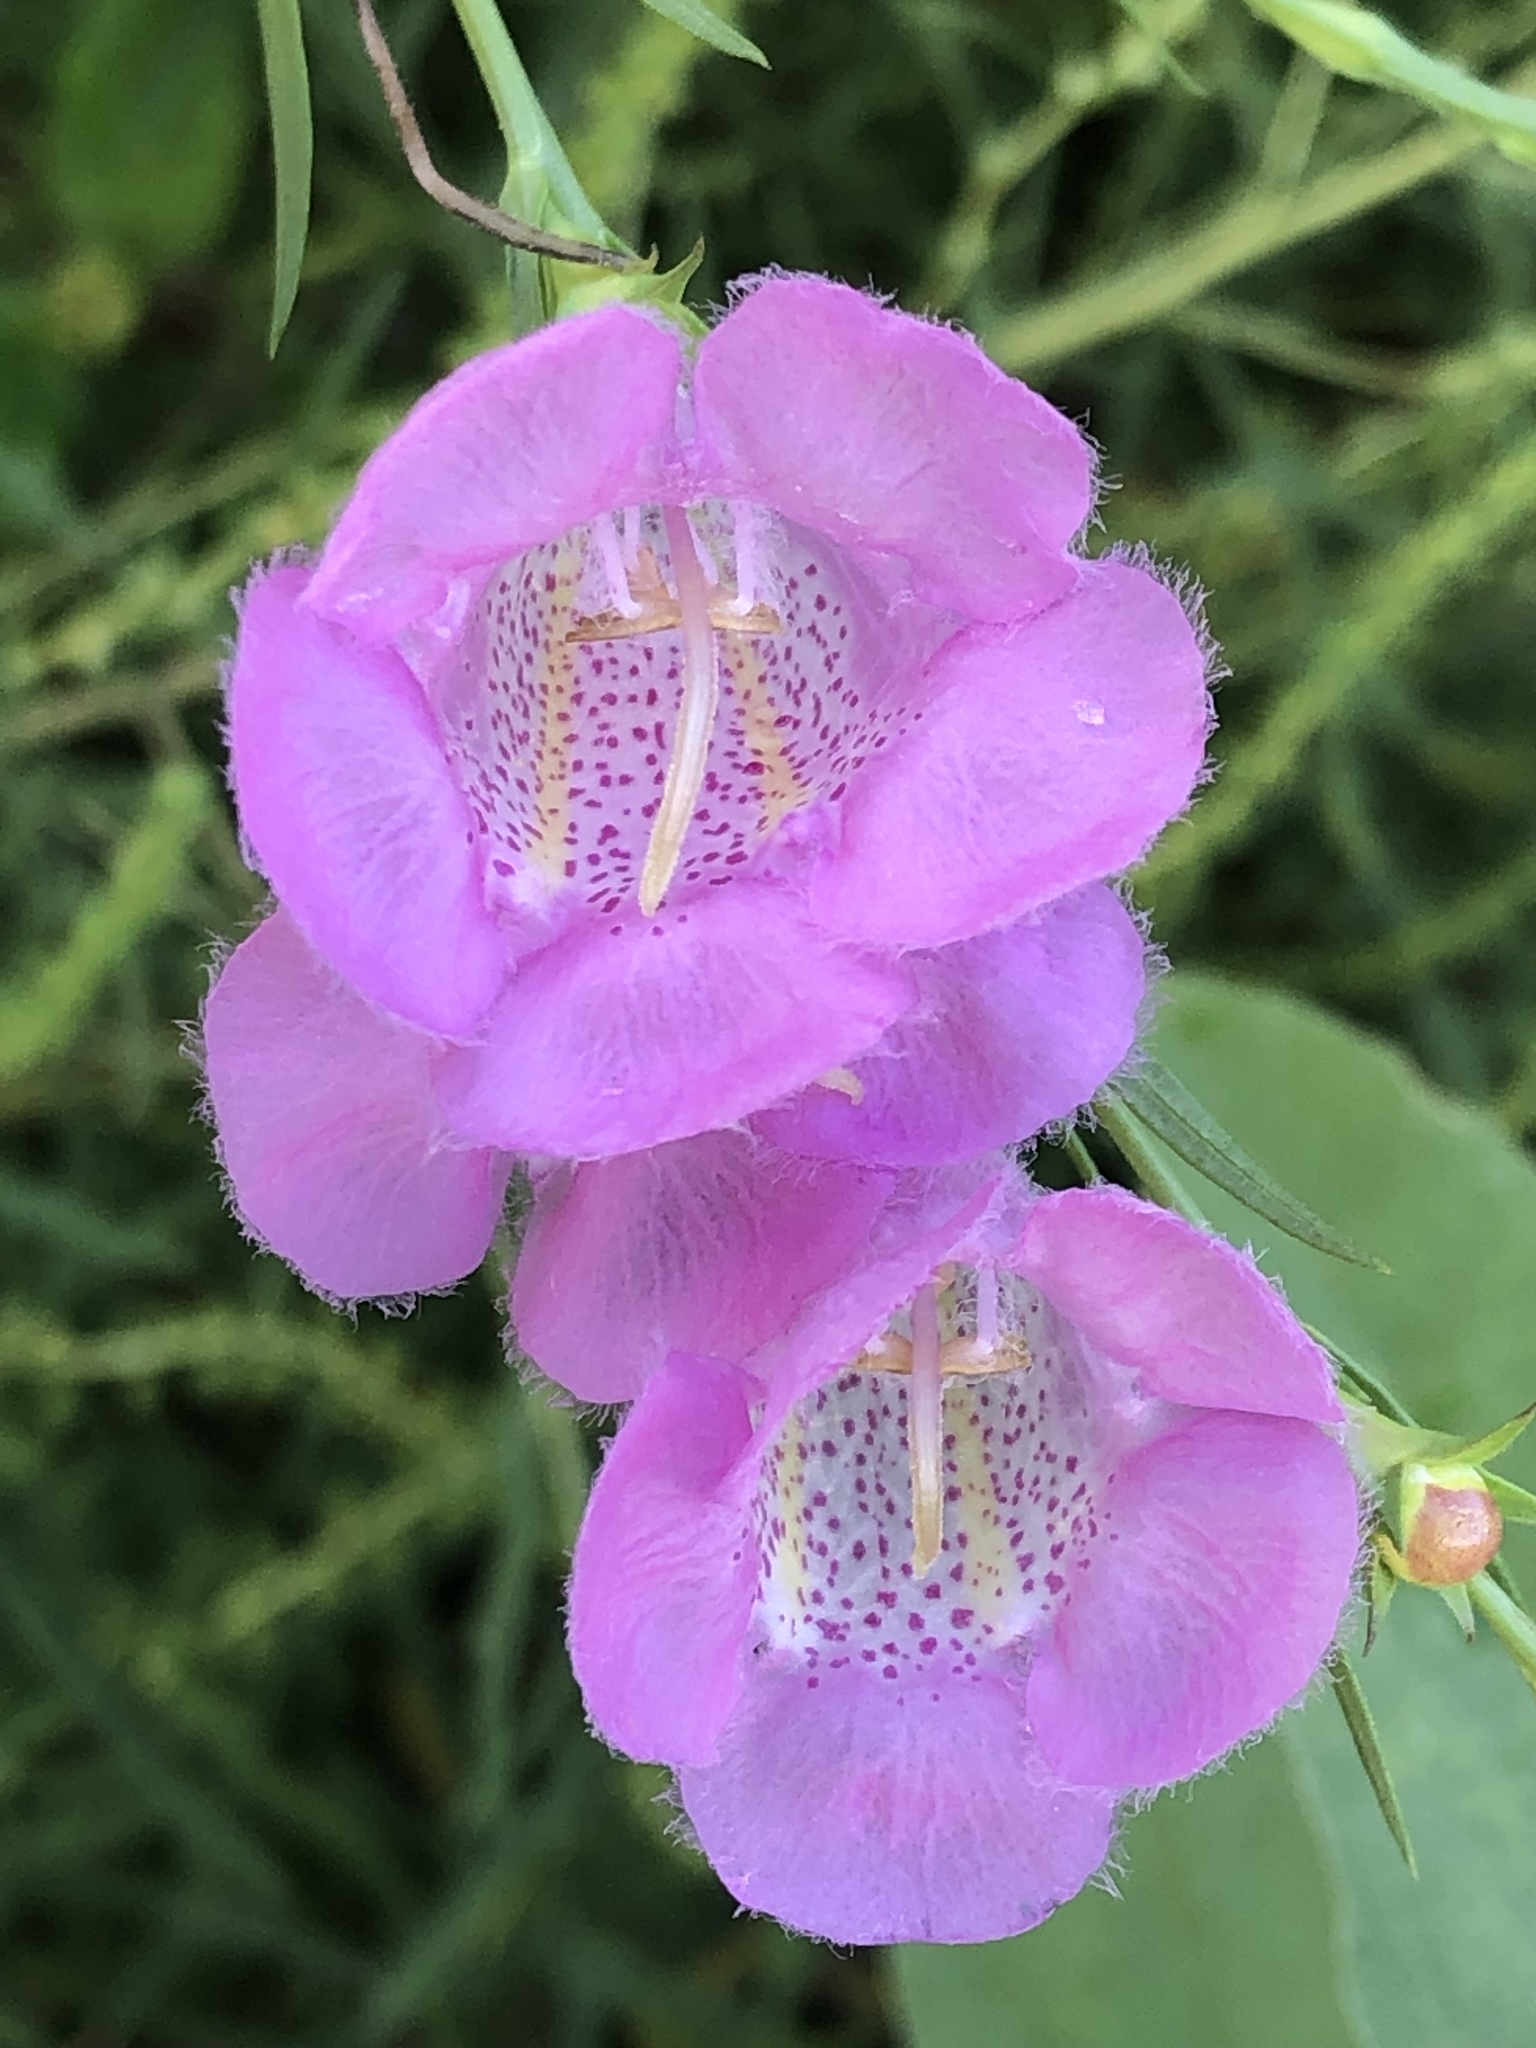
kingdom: Plantae
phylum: Tracheophyta
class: Magnoliopsida
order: Lamiales
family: Orobanchaceae
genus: Agalinis
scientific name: Agalinis heterophylla
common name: Prairie agalinis
